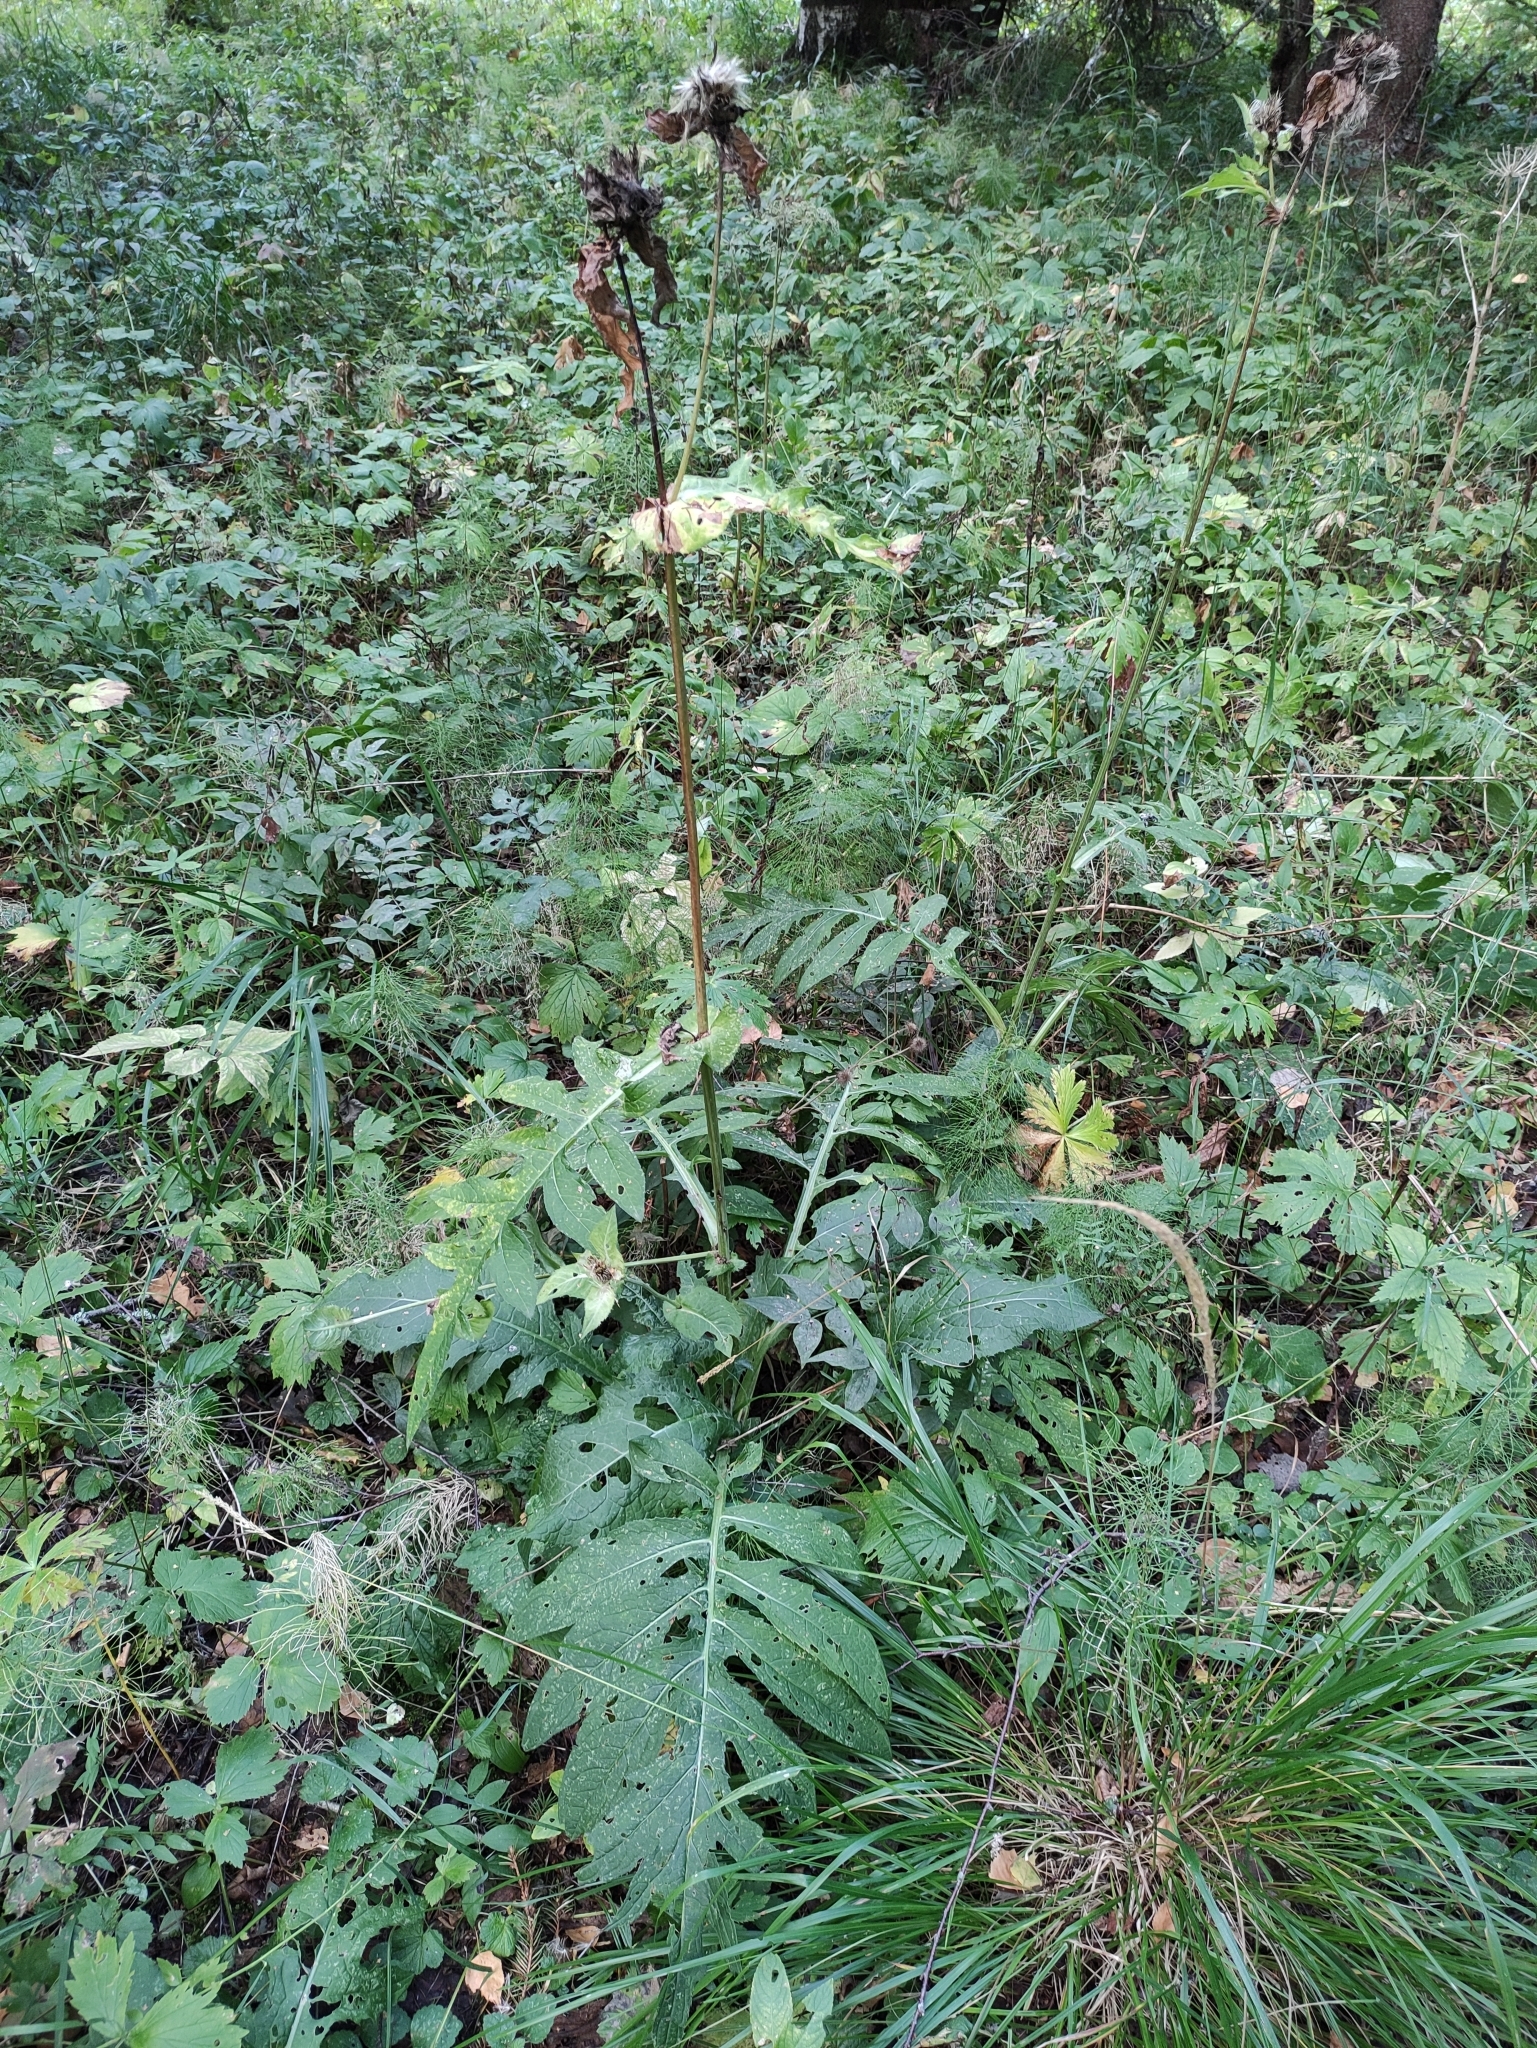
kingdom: Plantae
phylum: Tracheophyta
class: Magnoliopsida
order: Asterales
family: Asteraceae
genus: Cirsium
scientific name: Cirsium oleraceum
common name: Cabbage thistle
